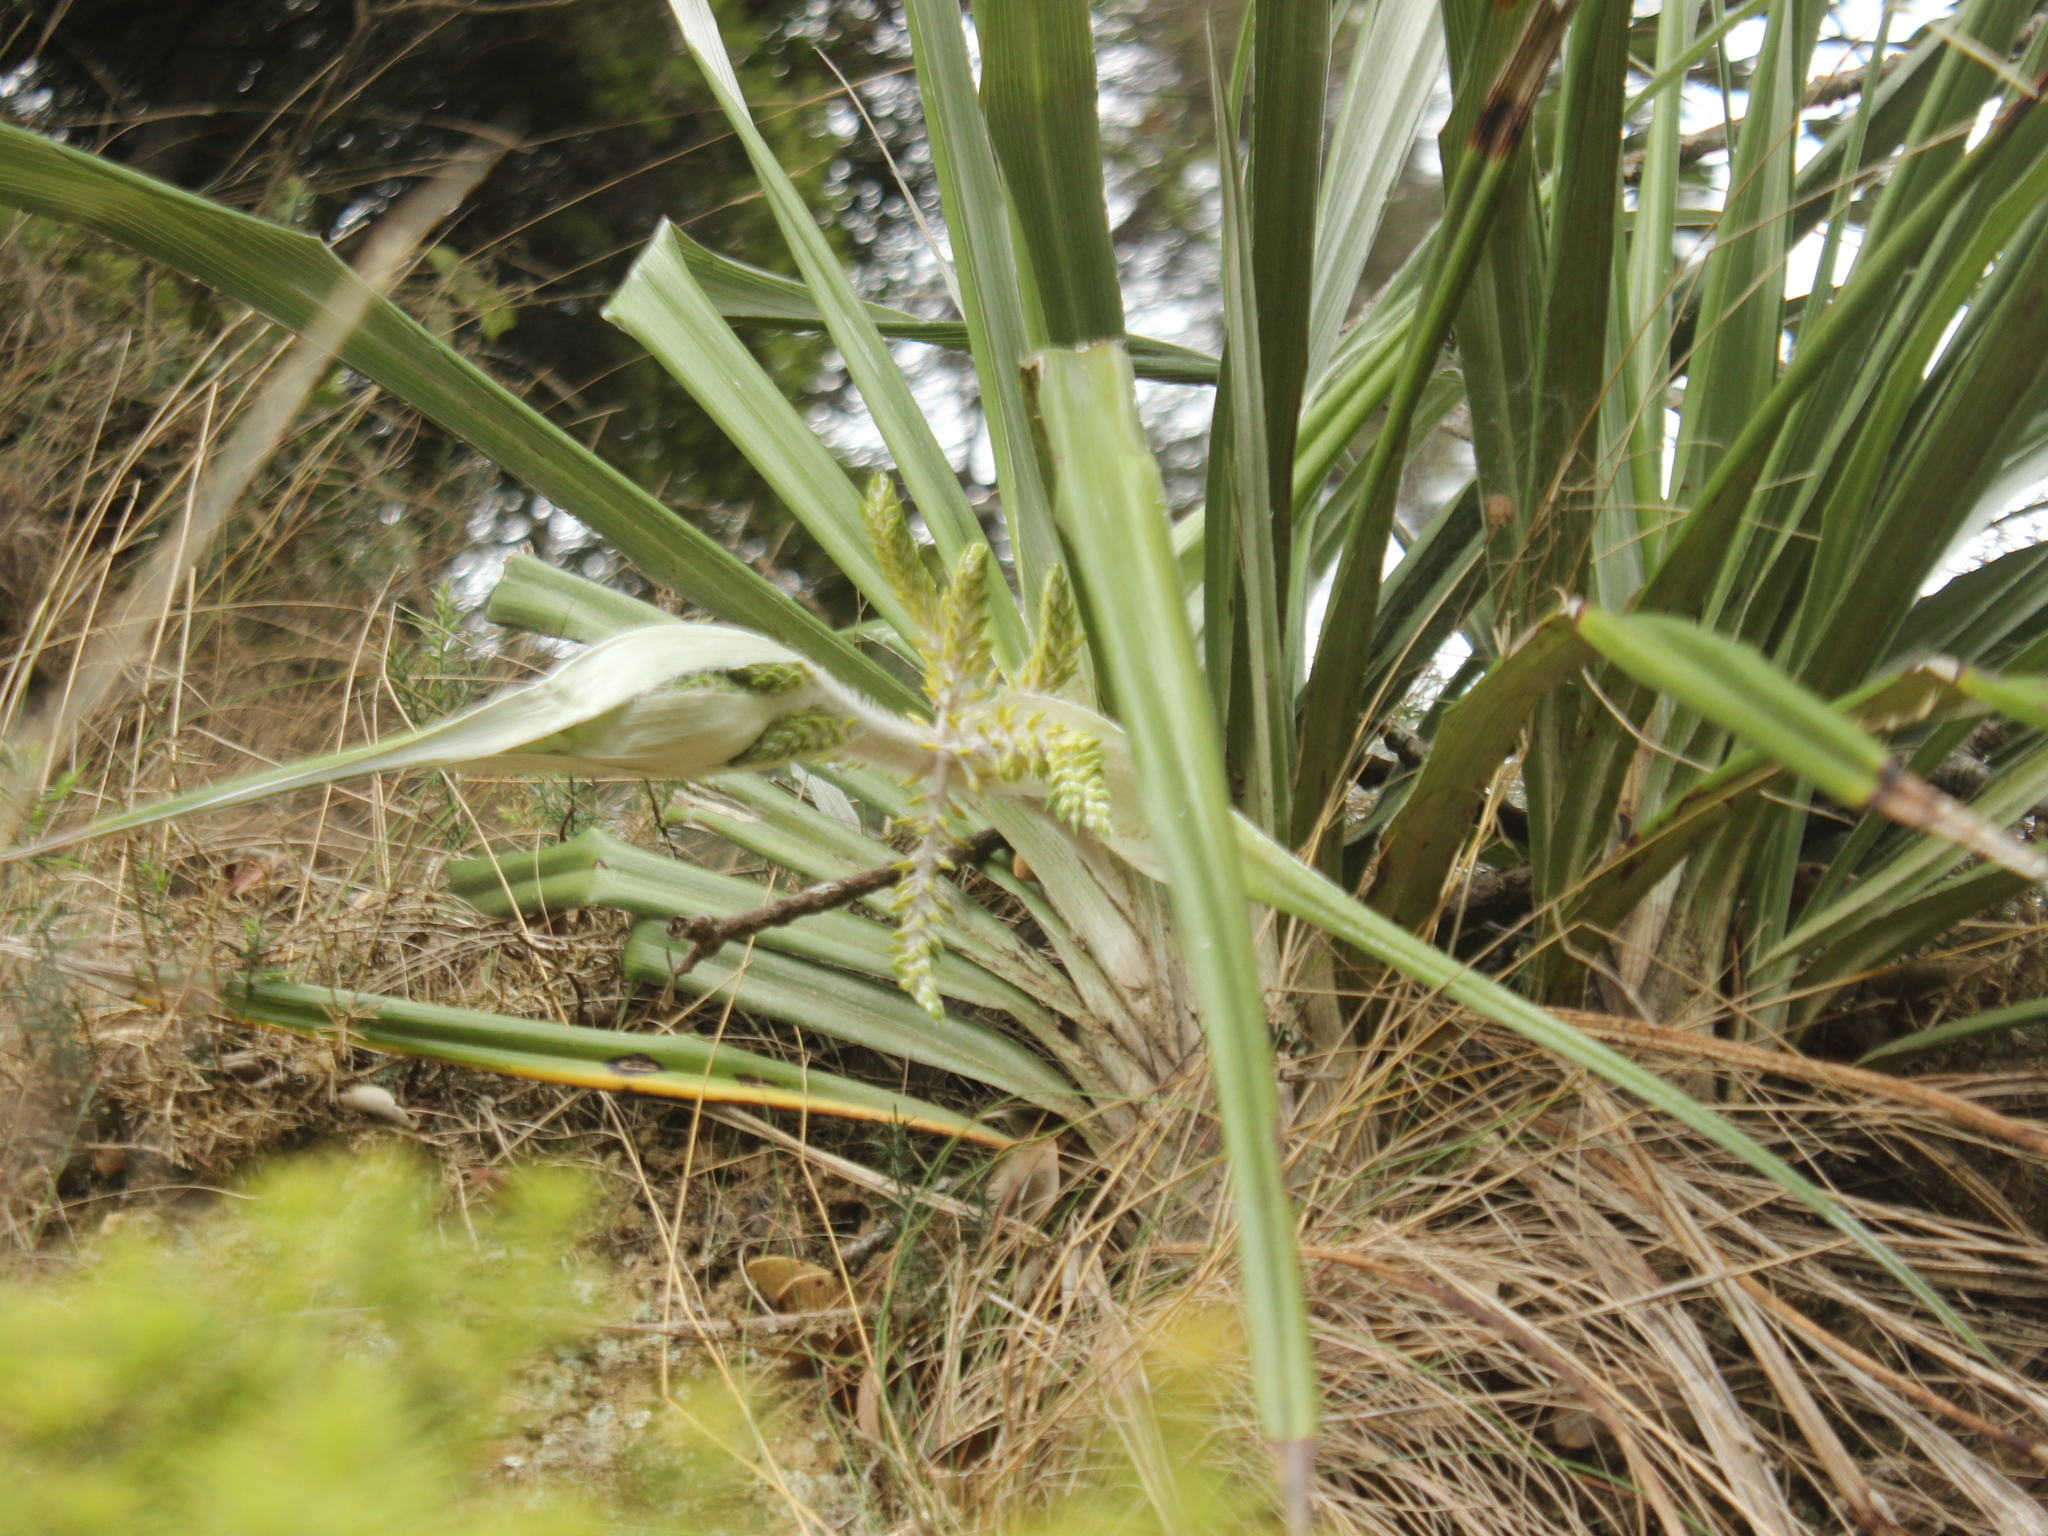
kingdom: Plantae
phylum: Tracheophyta
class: Liliopsida
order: Asparagales
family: Asteliaceae
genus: Astelia
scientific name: Astelia banksii
